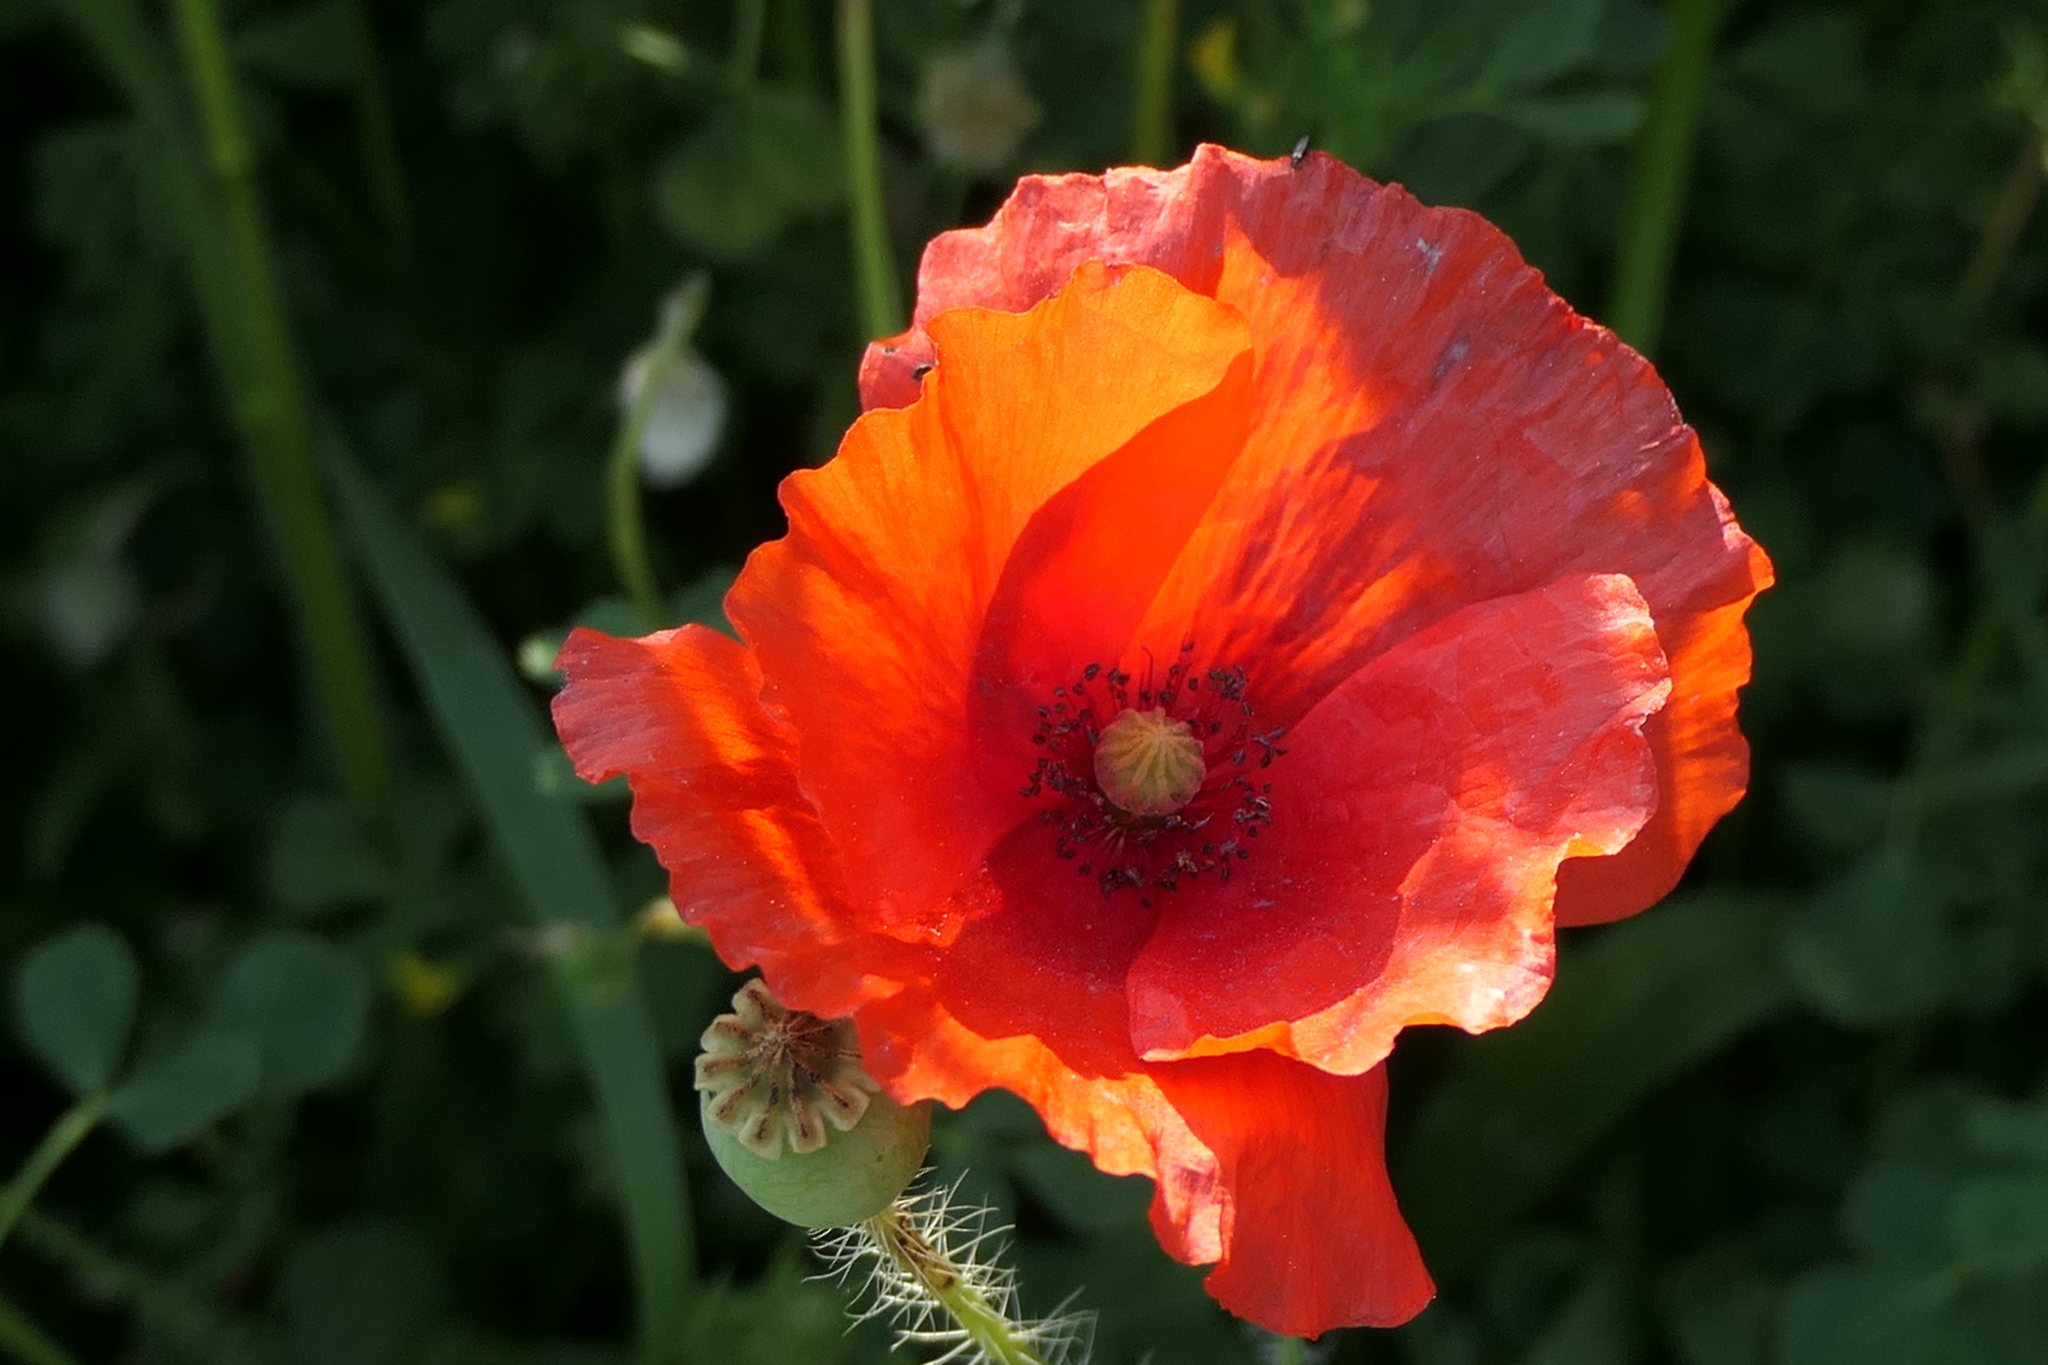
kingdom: Plantae
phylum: Tracheophyta
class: Magnoliopsida
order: Ranunculales
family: Papaveraceae
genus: Papaver
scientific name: Papaver rhoeas
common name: Corn poppy
